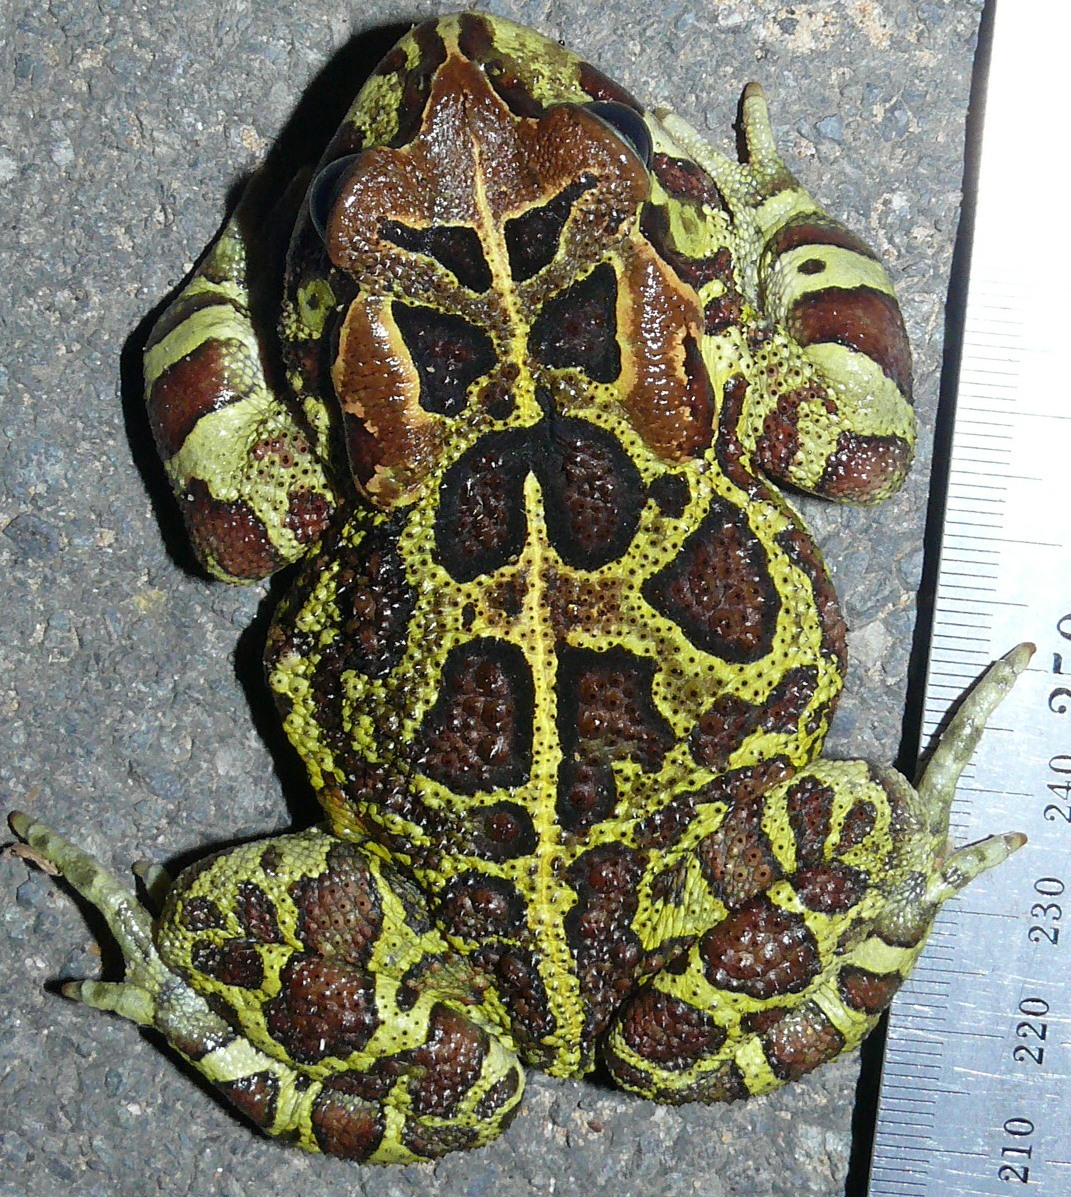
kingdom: Animalia
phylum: Chordata
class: Amphibia
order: Anura
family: Bufonidae
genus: Sclerophrys
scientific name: Sclerophrys pantherina
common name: Panther toad
